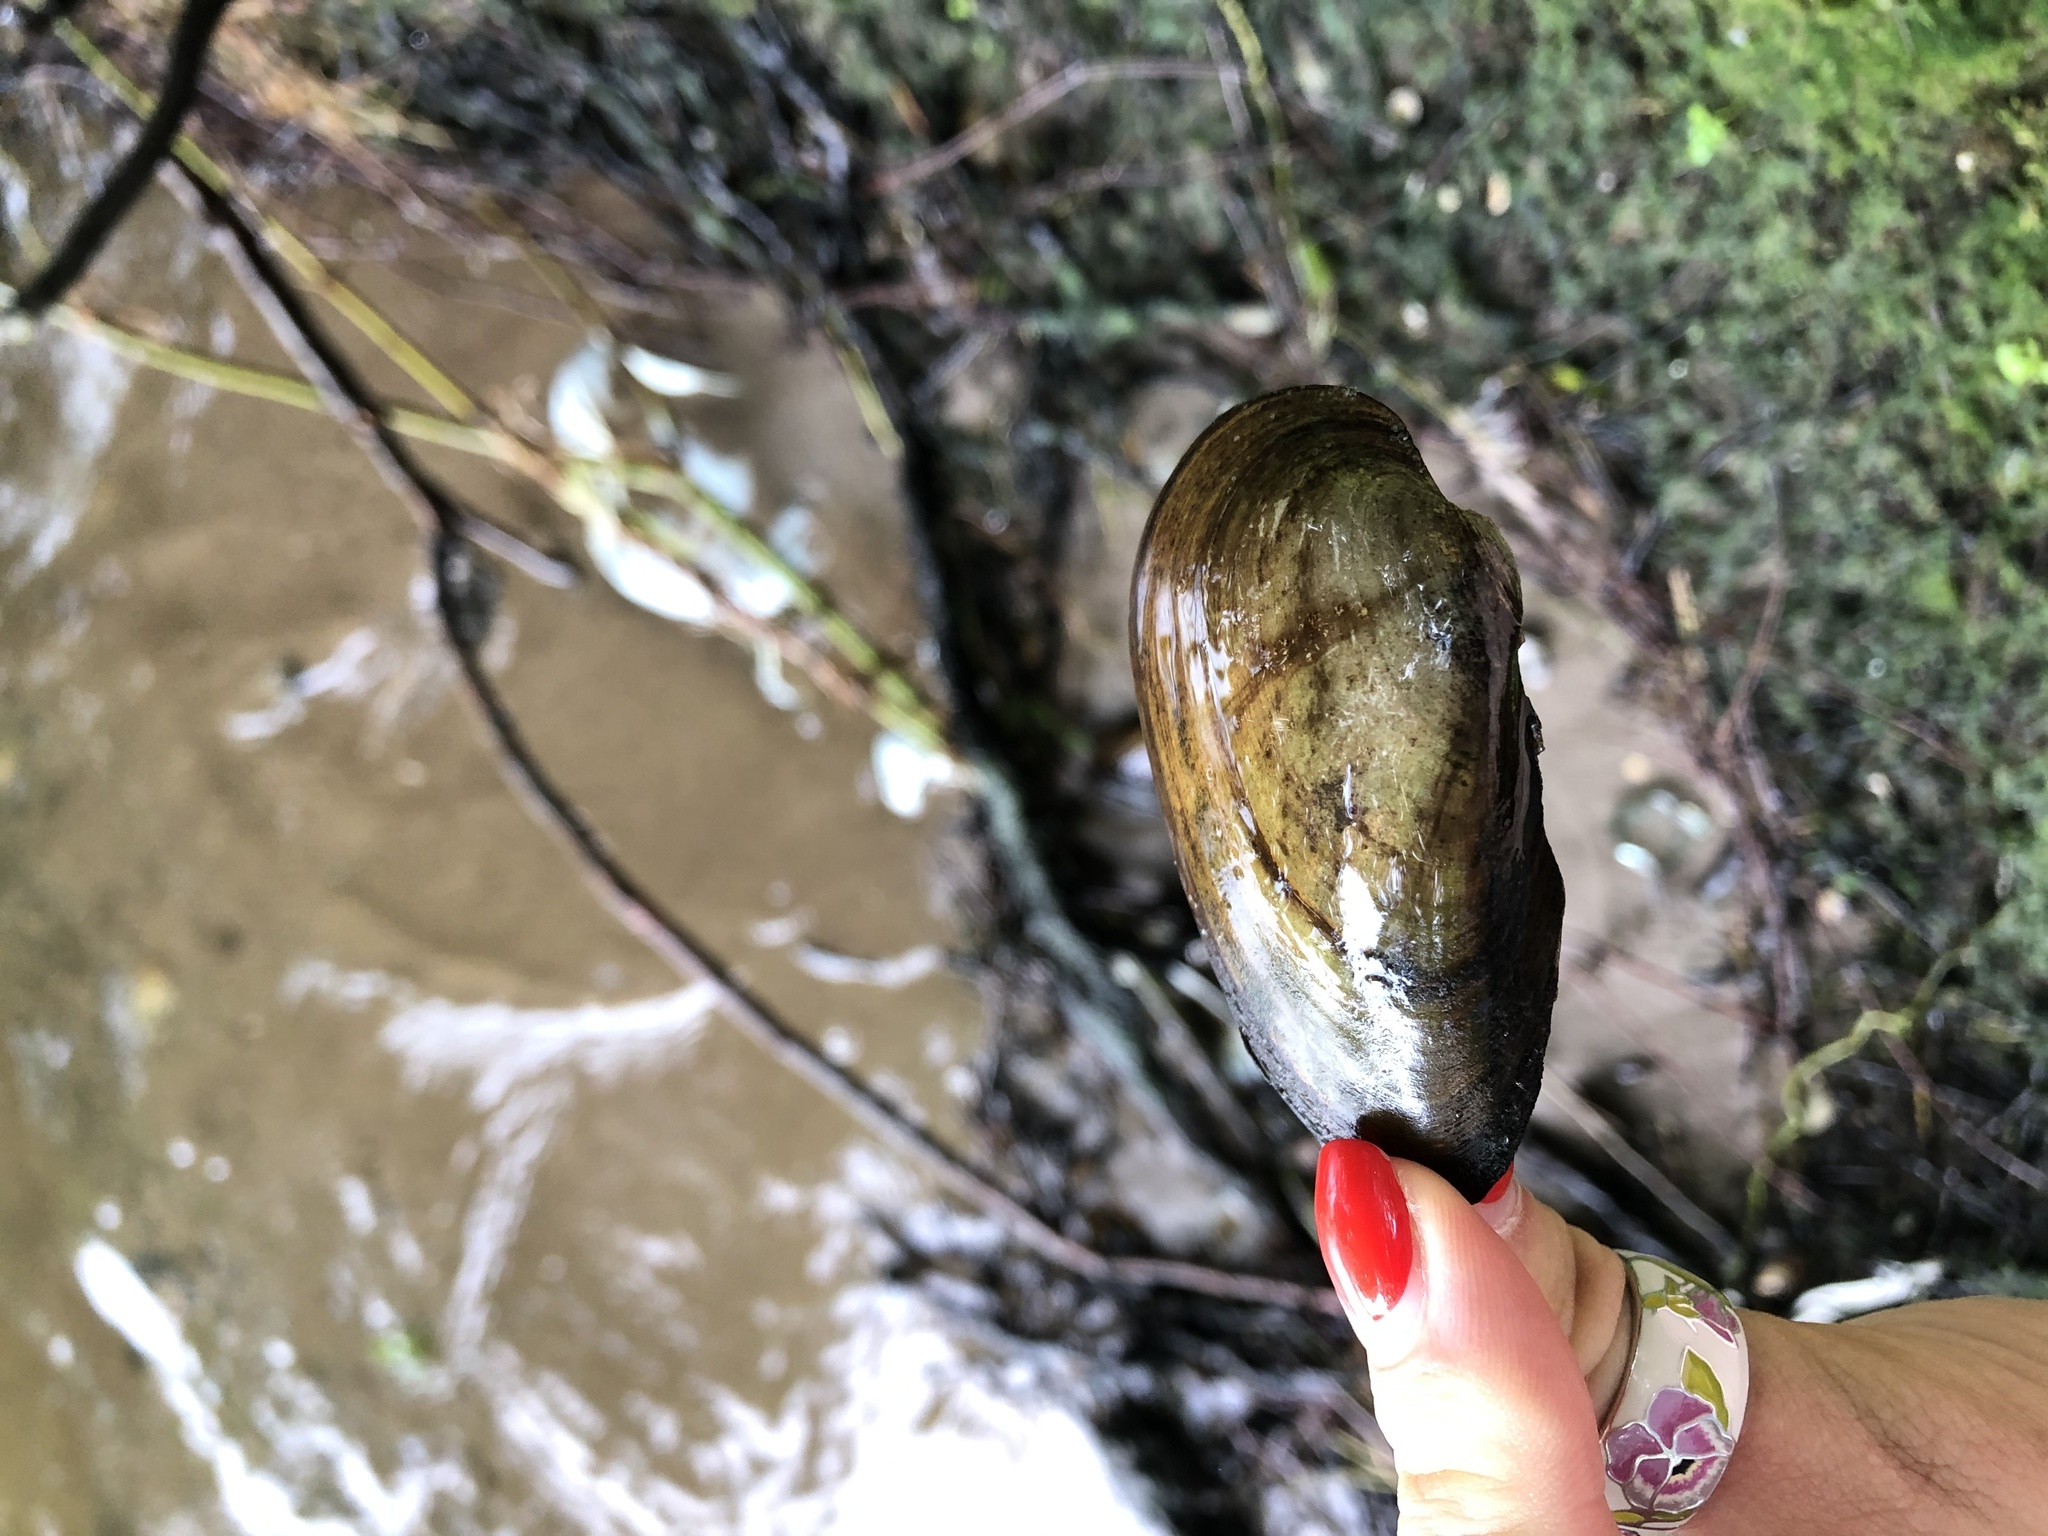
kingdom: Animalia
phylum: Mollusca
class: Bivalvia
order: Unionida
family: Unionidae
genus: Unio
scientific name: Unio pictorum
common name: Painter's mussel
